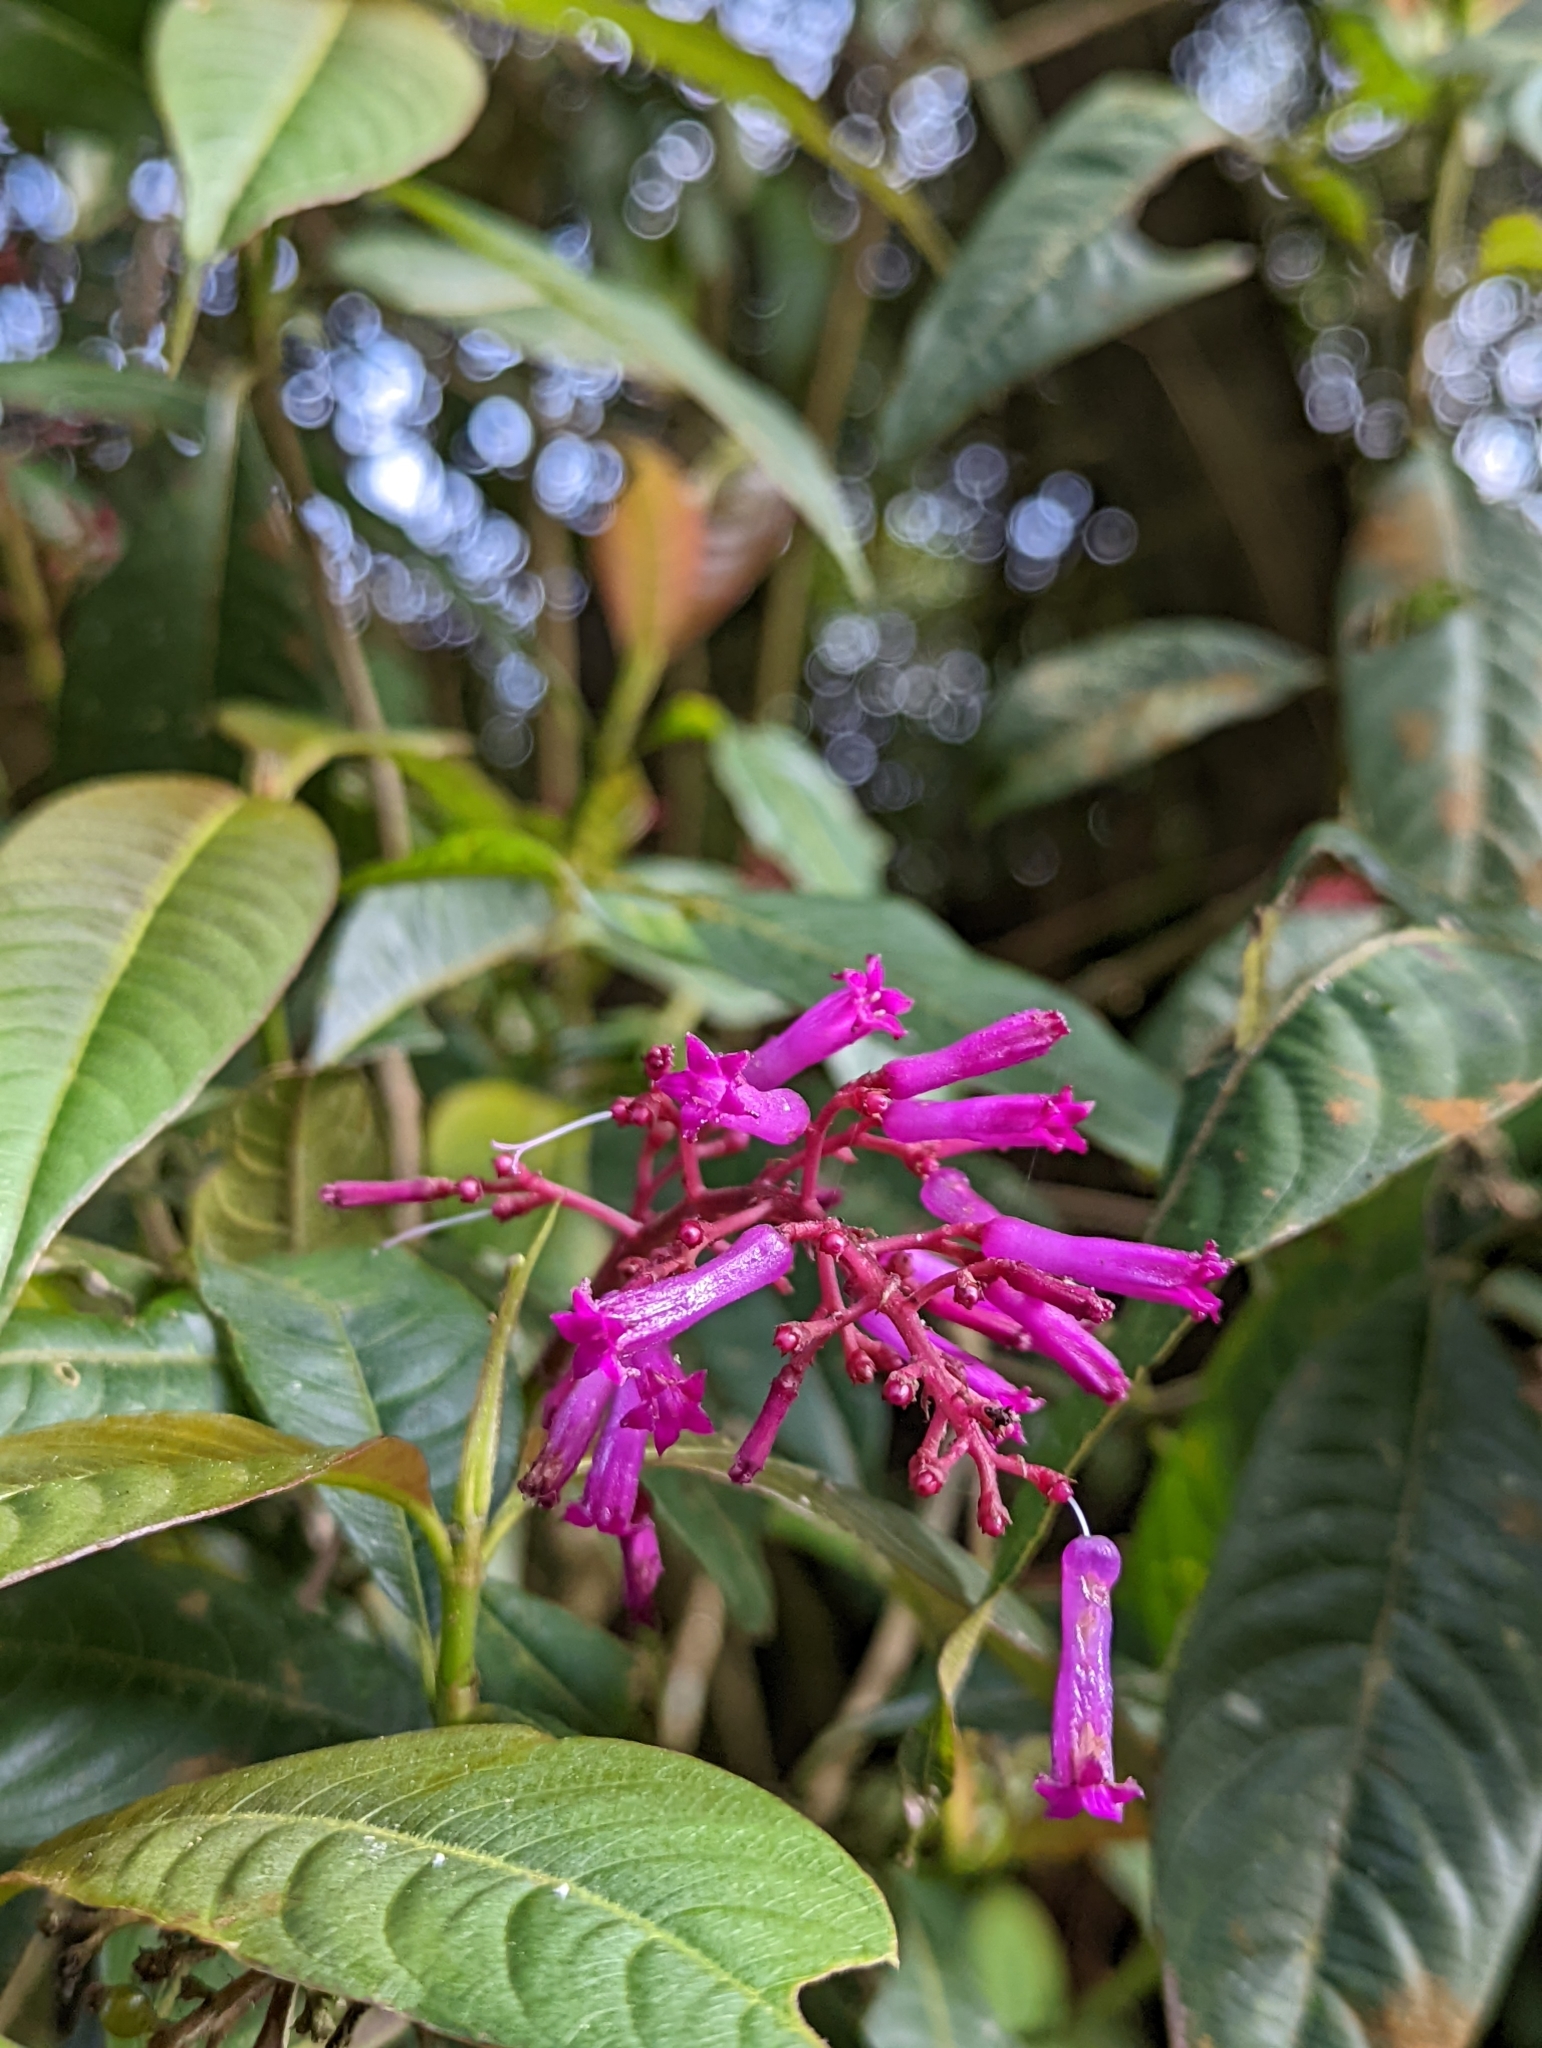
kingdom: Plantae
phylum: Tracheophyta
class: Magnoliopsida
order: Gentianales
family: Rubiaceae
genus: Palicourea
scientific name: Palicourea angustifolia
